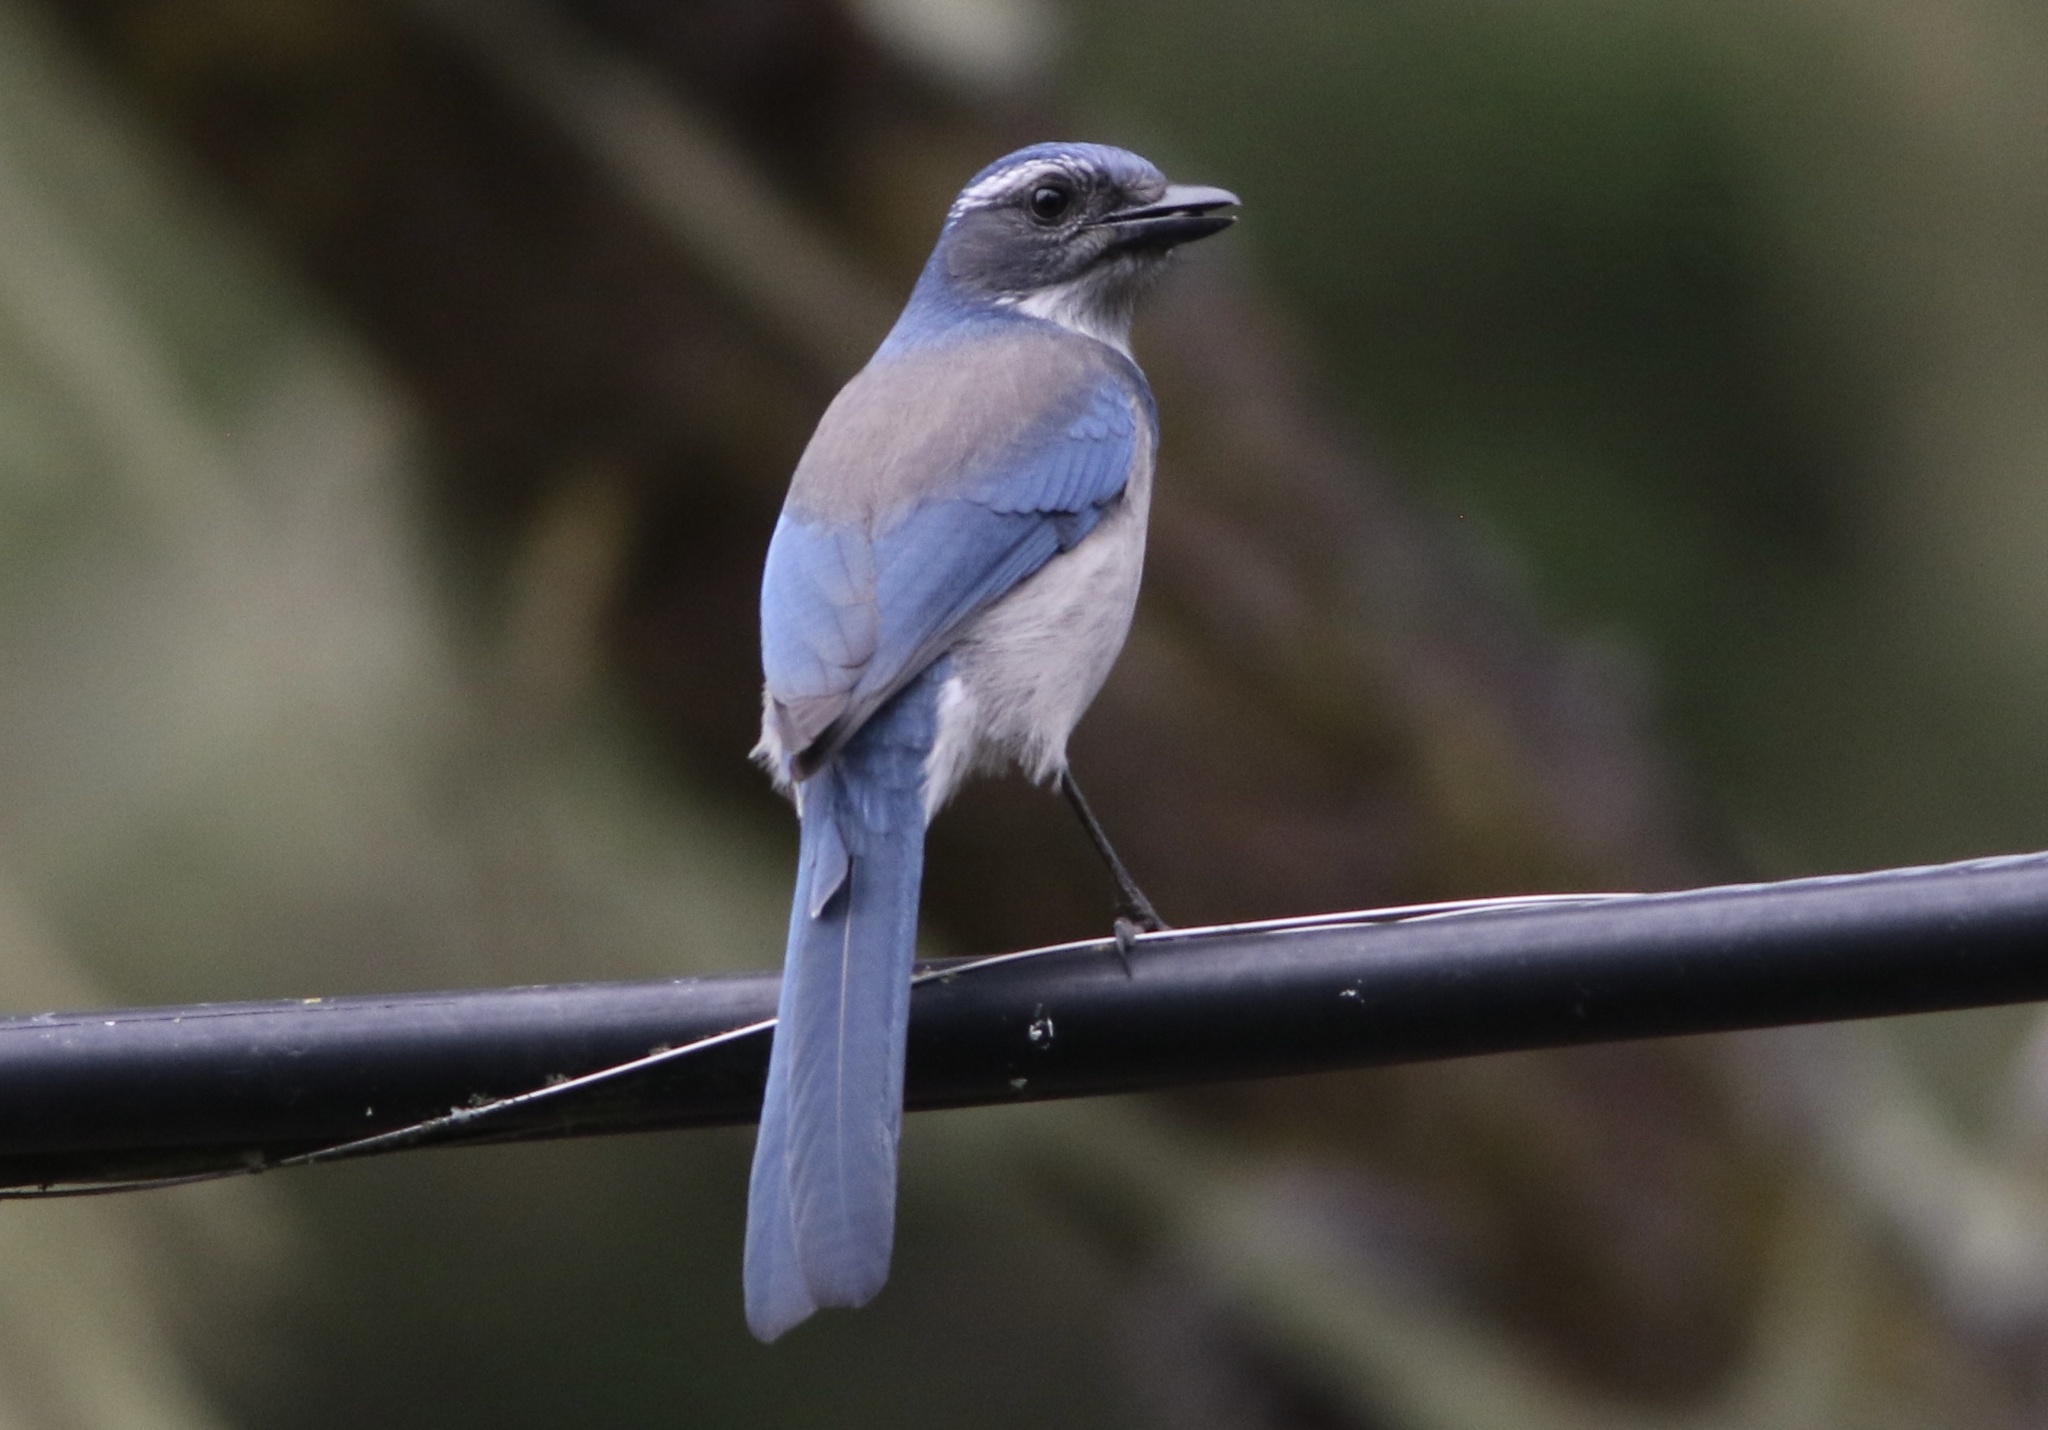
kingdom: Animalia
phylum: Chordata
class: Aves
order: Passeriformes
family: Corvidae
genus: Aphelocoma
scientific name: Aphelocoma californica
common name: California scrub-jay
